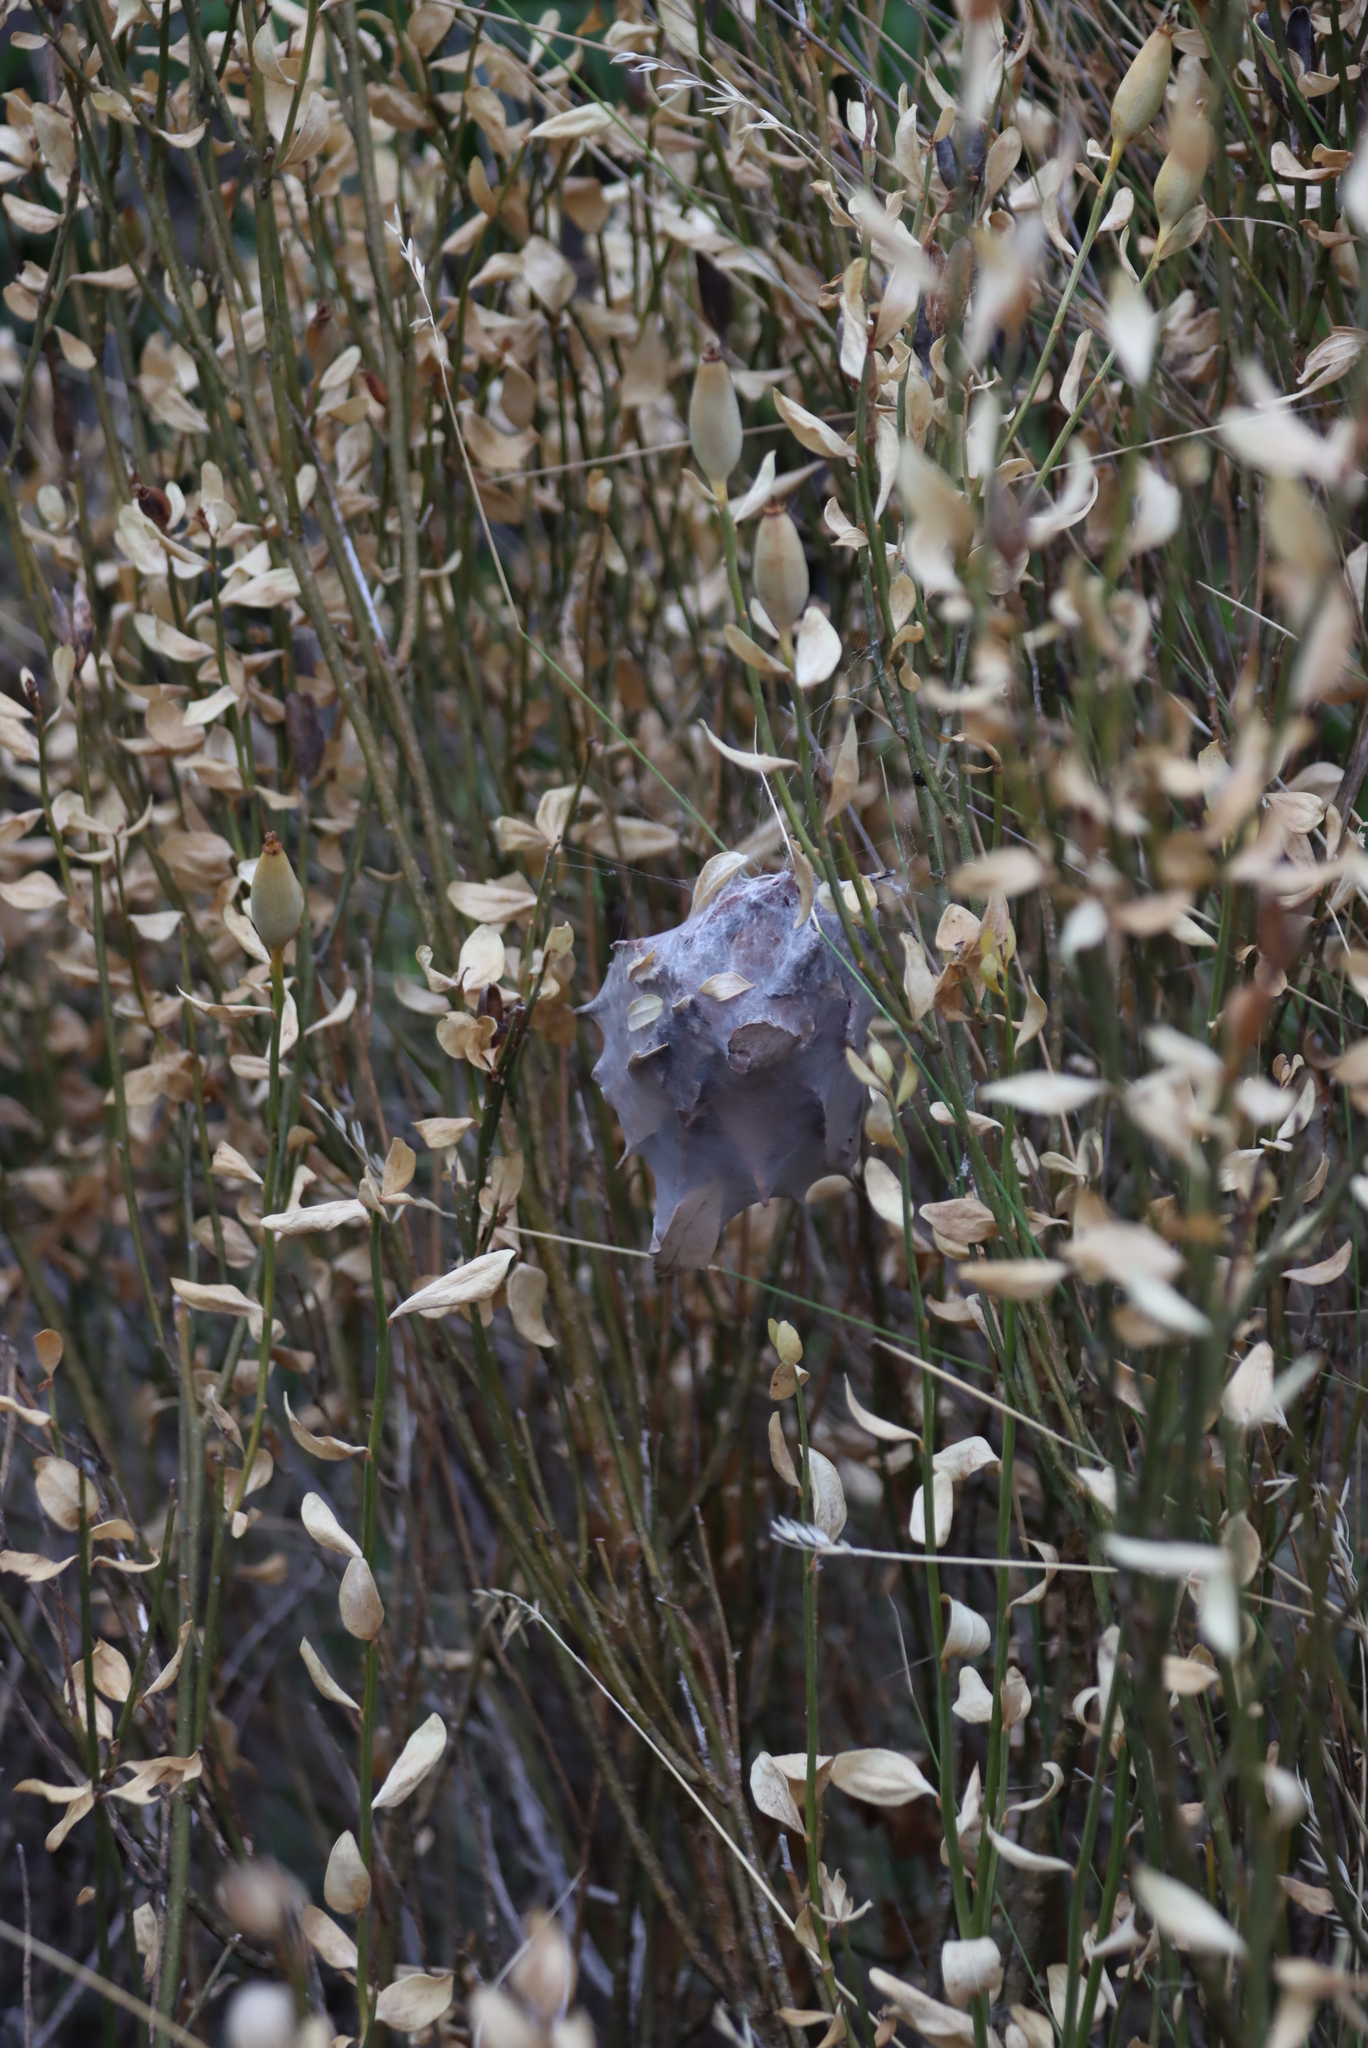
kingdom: Plantae
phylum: Tracheophyta
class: Magnoliopsida
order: Solanales
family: Montiniaceae
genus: Montinia
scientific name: Montinia caryophyllacea
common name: Wild clove-bush
